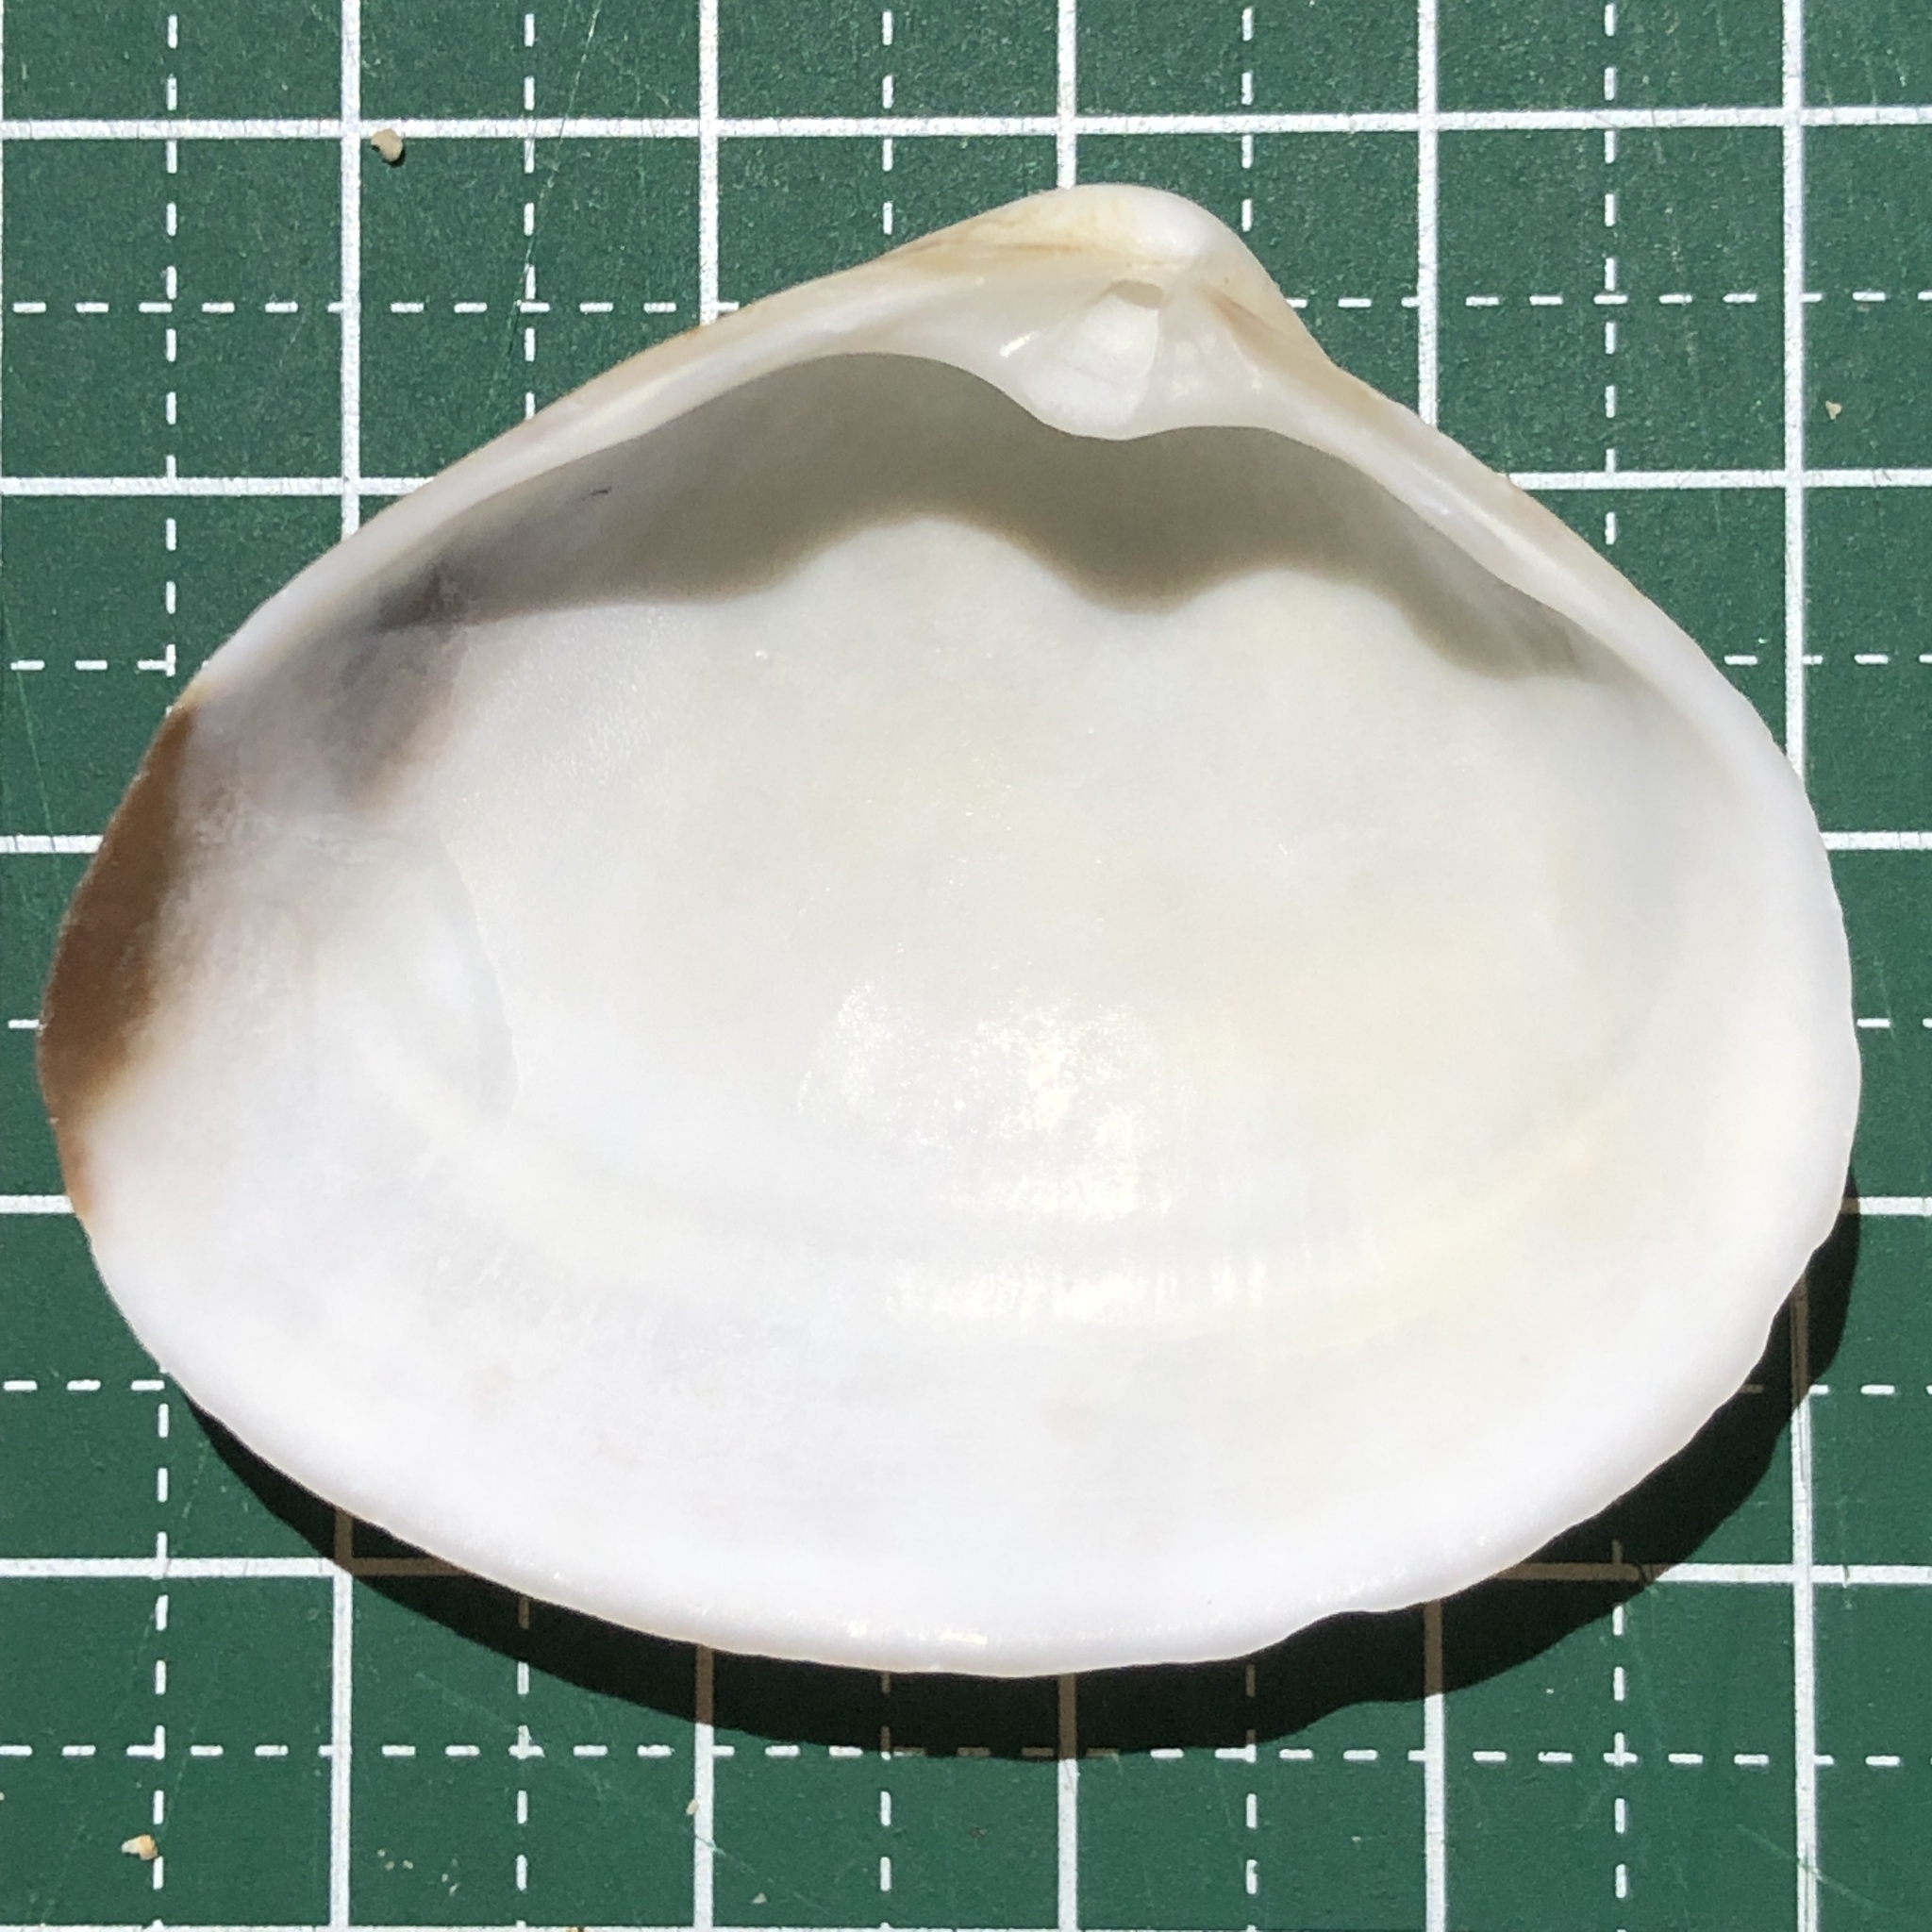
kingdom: Animalia
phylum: Mollusca
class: Bivalvia
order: Venerida
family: Mactridae
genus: Mactra
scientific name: Mactra maculata
